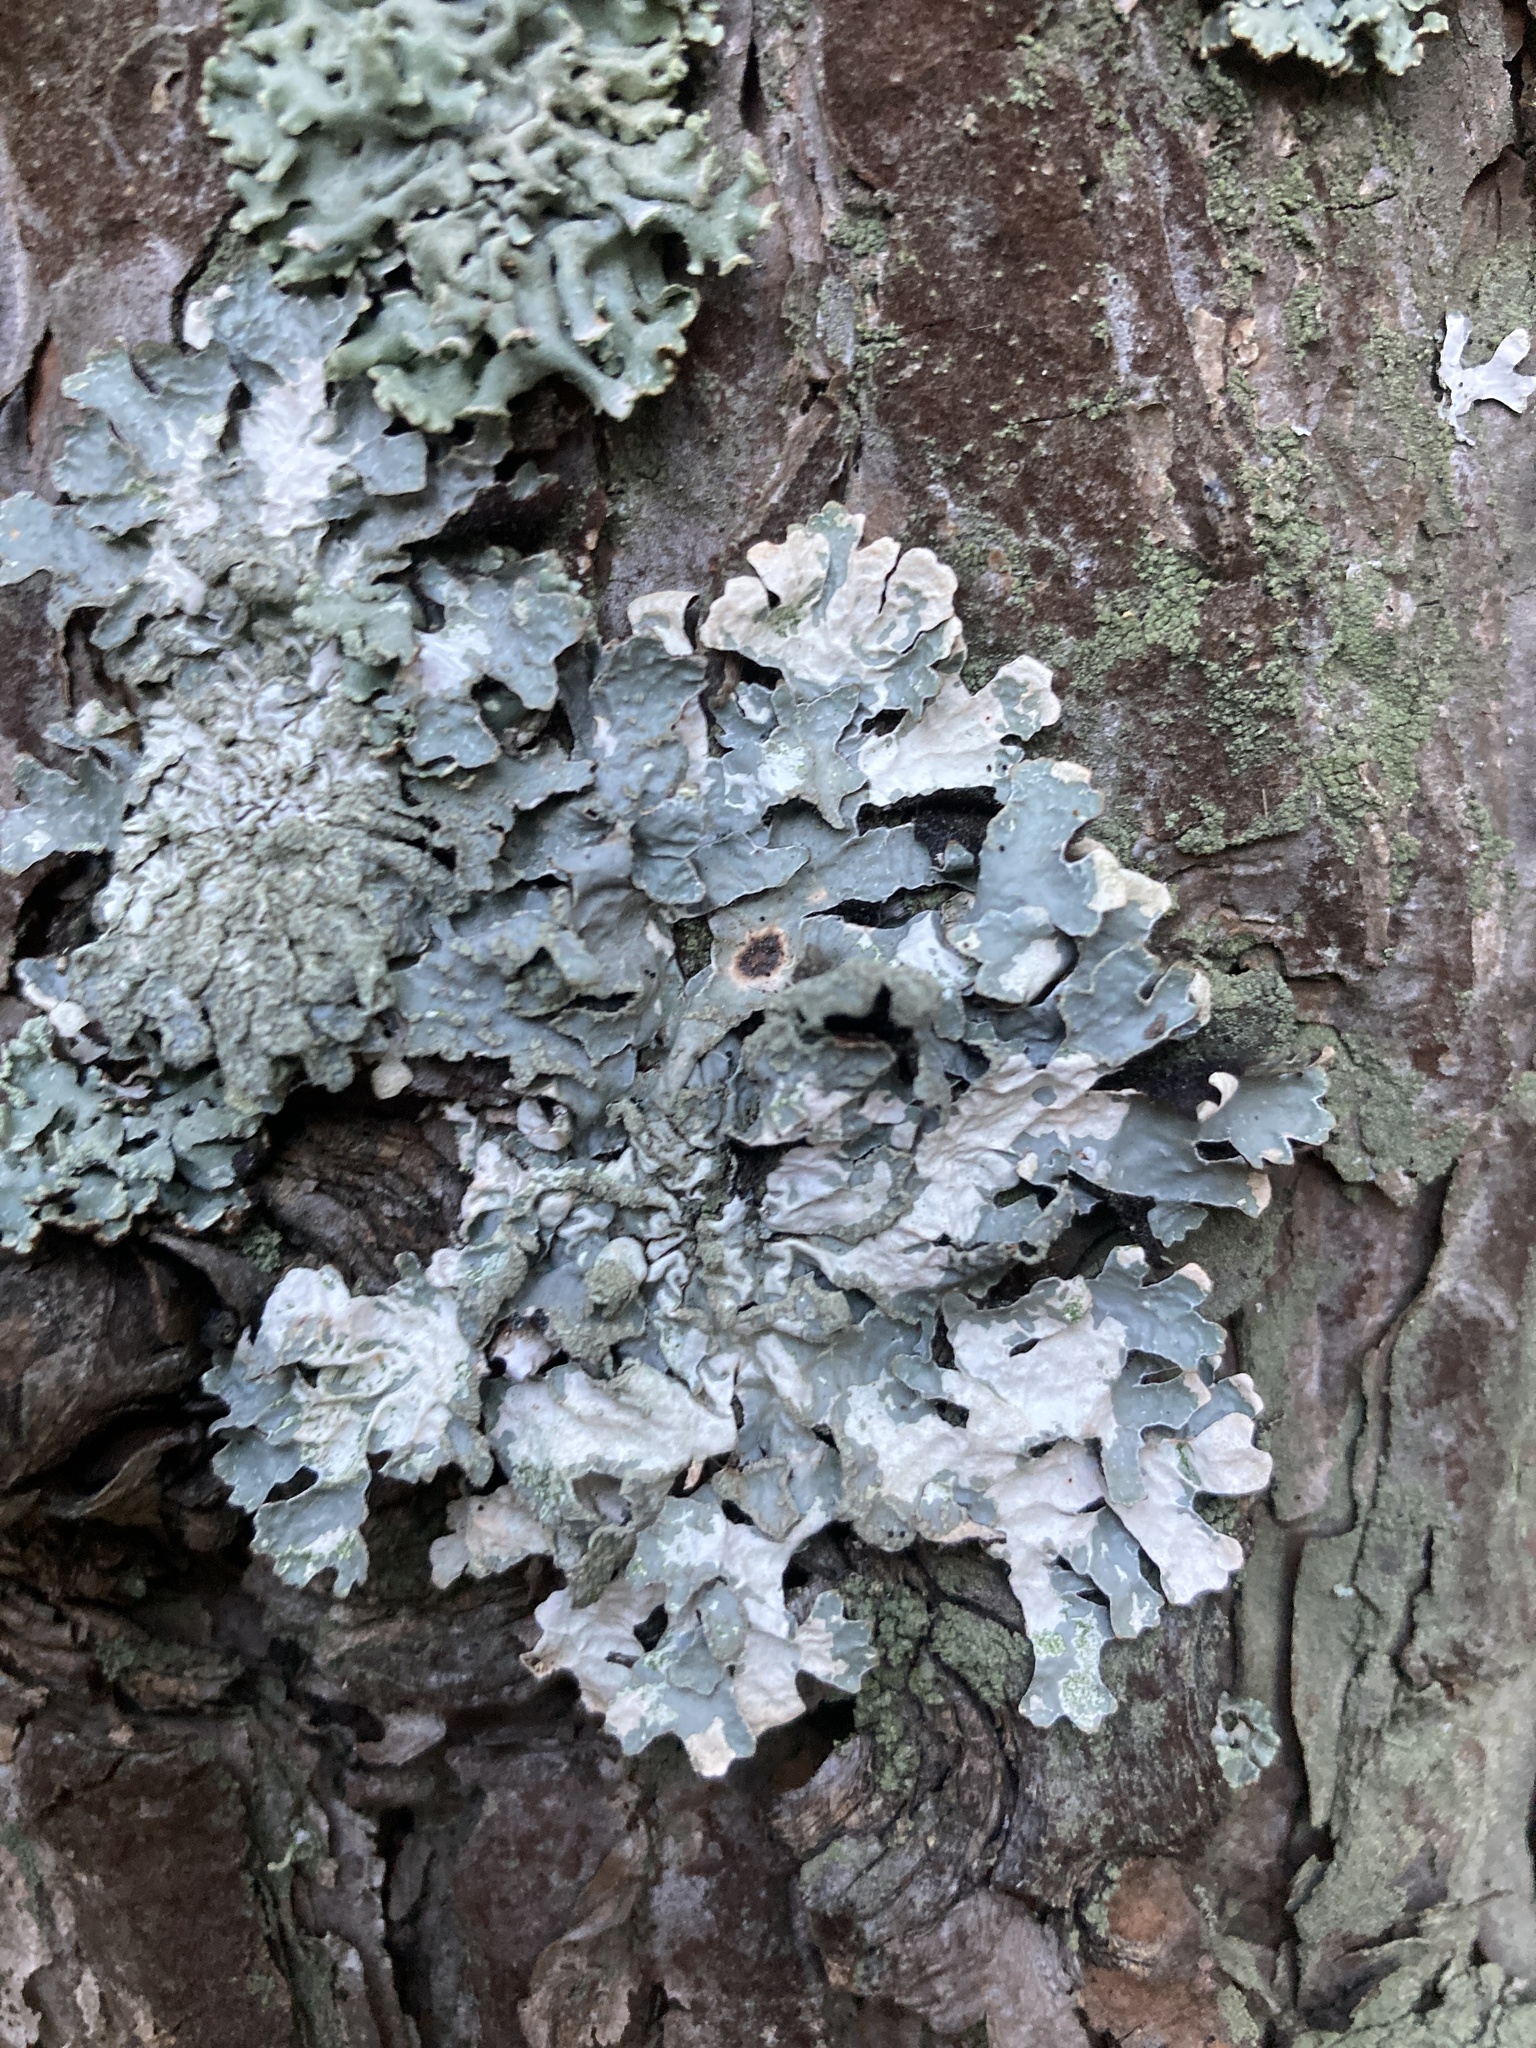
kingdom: Fungi
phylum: Ascomycota
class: Lecanoromycetes
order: Lecanorales
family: Parmeliaceae
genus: Parmelia
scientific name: Parmelia sulcata
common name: Netted shield lichen
